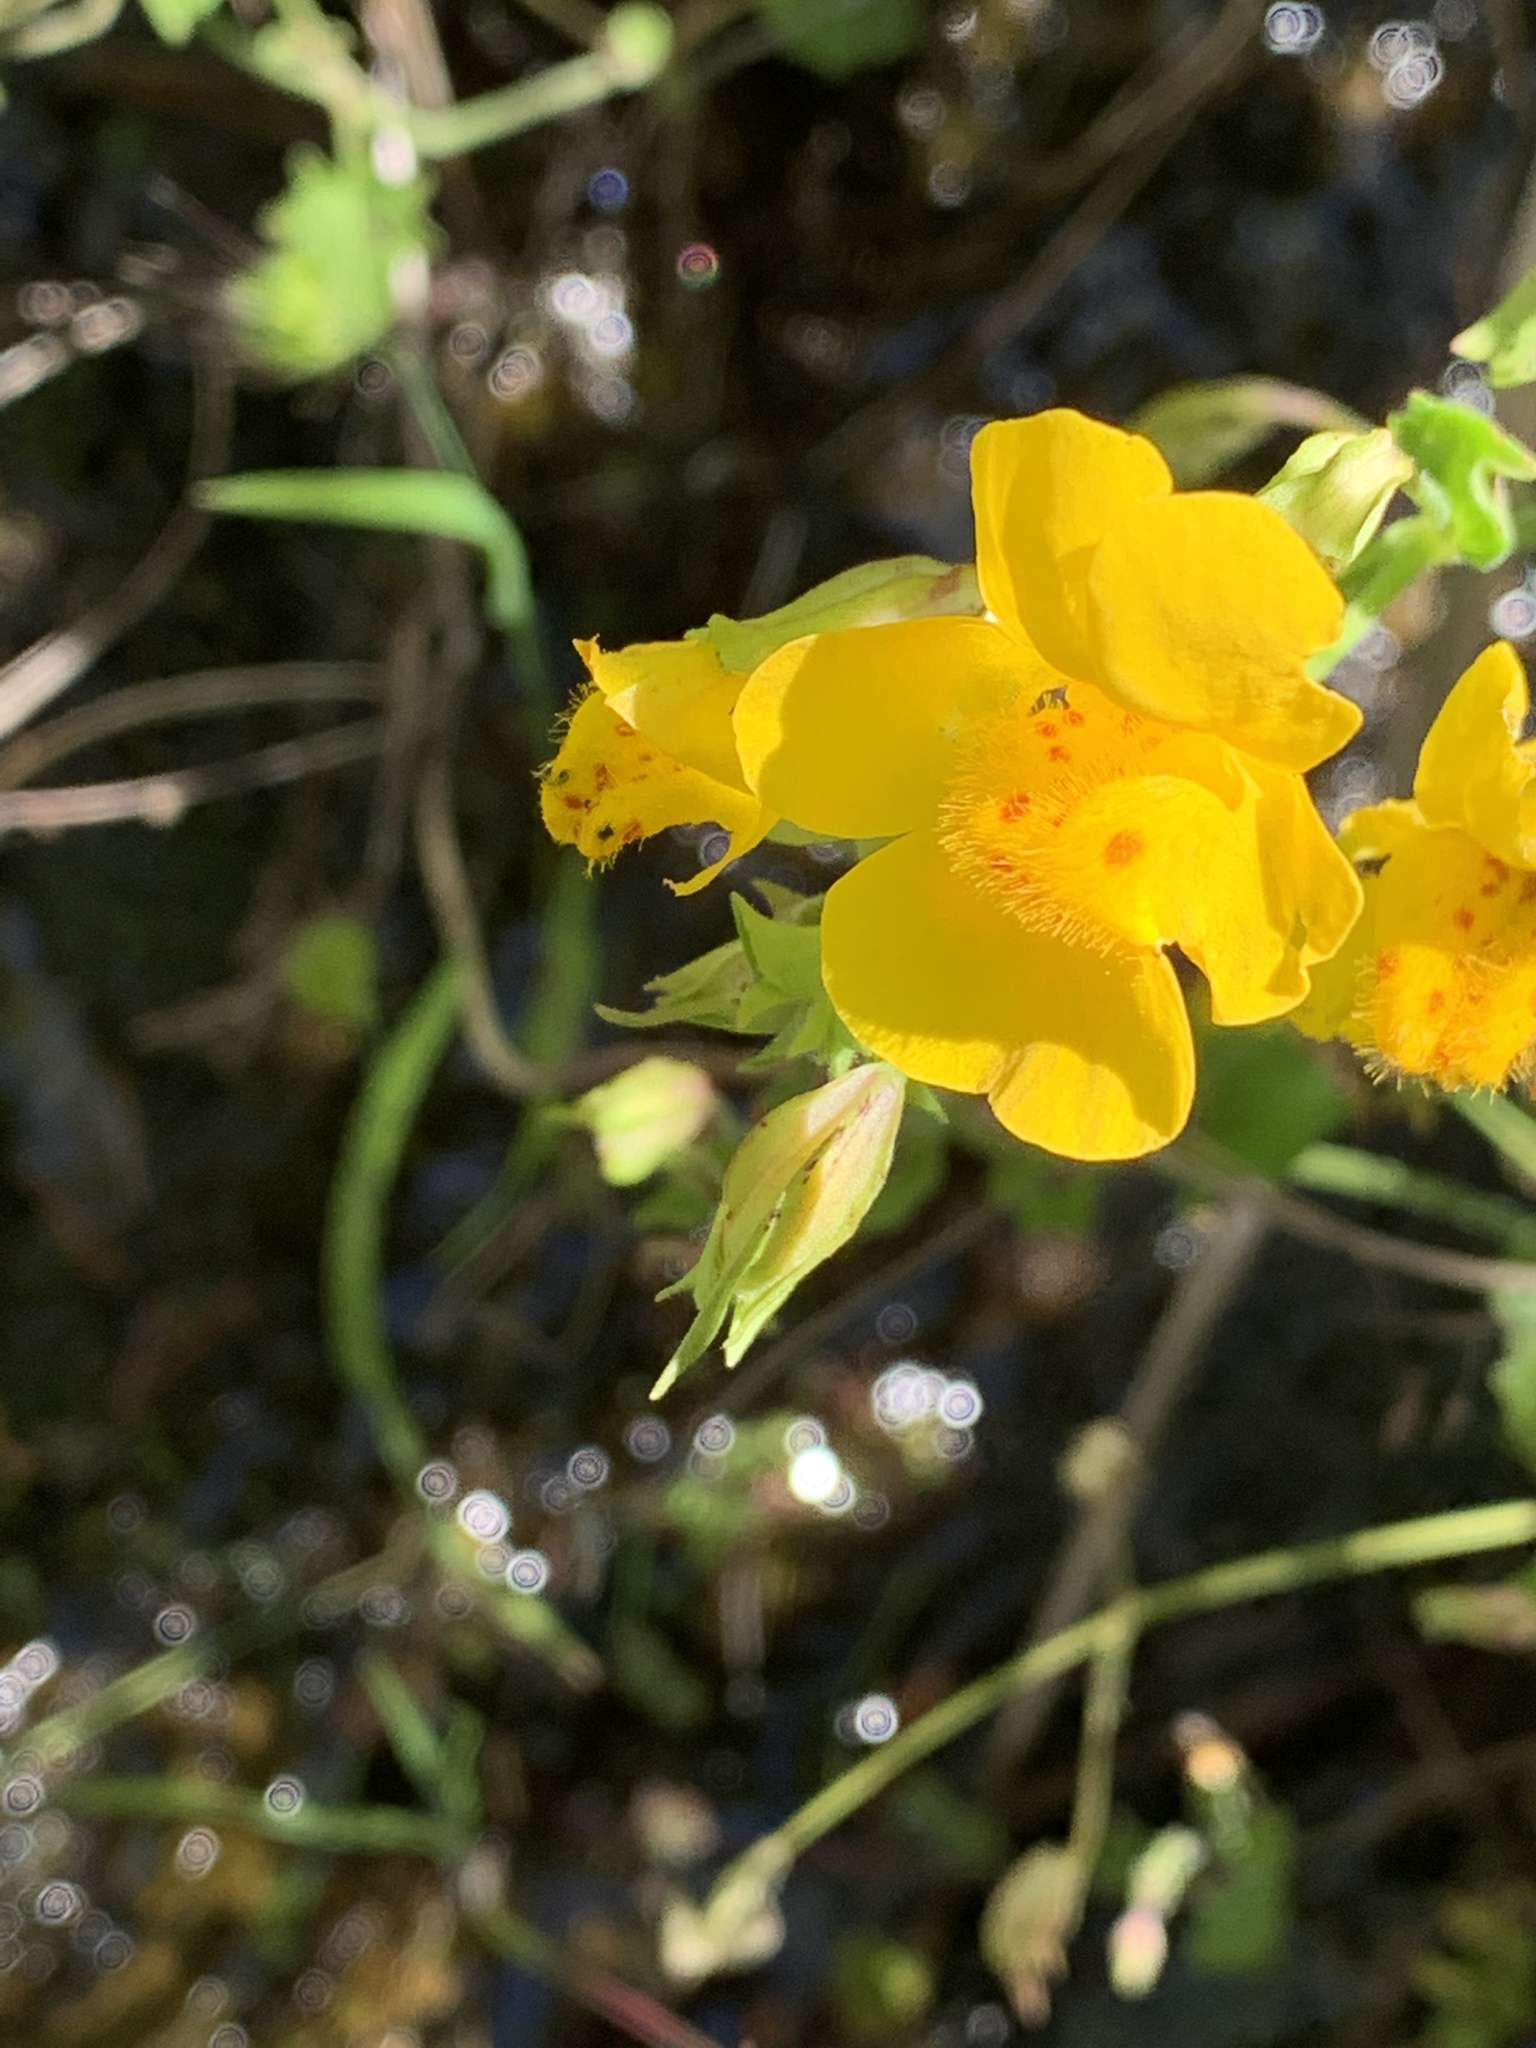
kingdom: Plantae
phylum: Tracheophyta
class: Magnoliopsida
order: Lamiales
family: Phrymaceae
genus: Erythranthe
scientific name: Erythranthe guttata
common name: Monkeyflower
